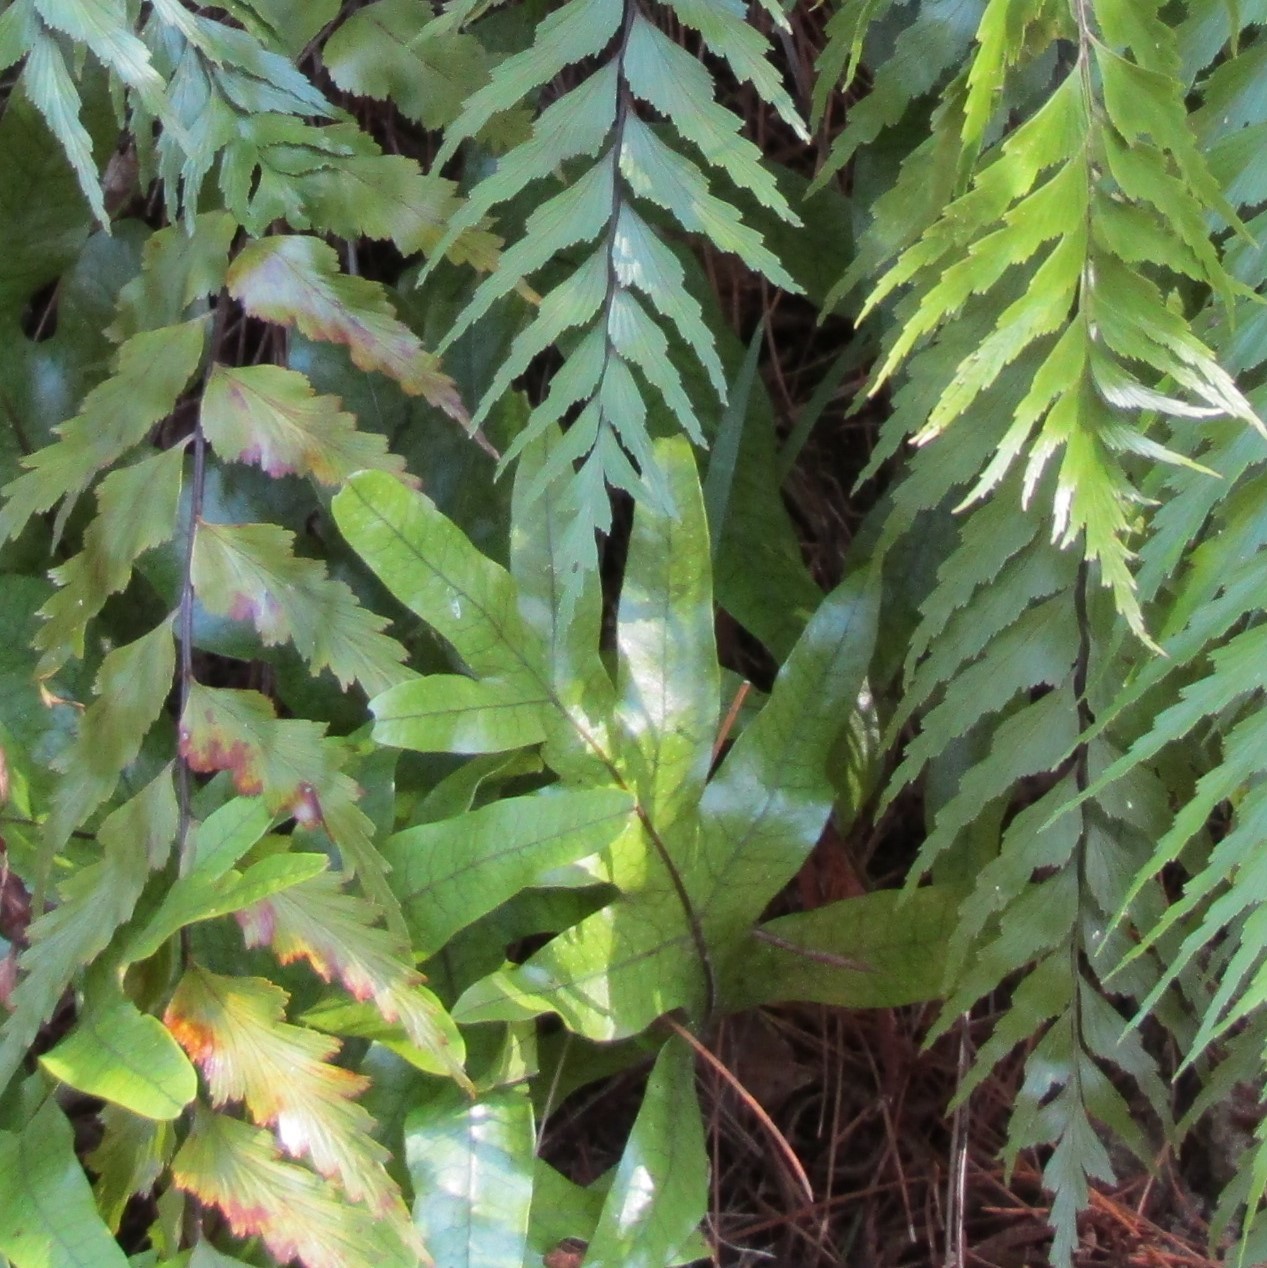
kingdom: Plantae
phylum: Tracheophyta
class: Polypodiopsida
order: Polypodiales
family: Polypodiaceae
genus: Lecanopteris
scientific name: Lecanopteris pustulata
